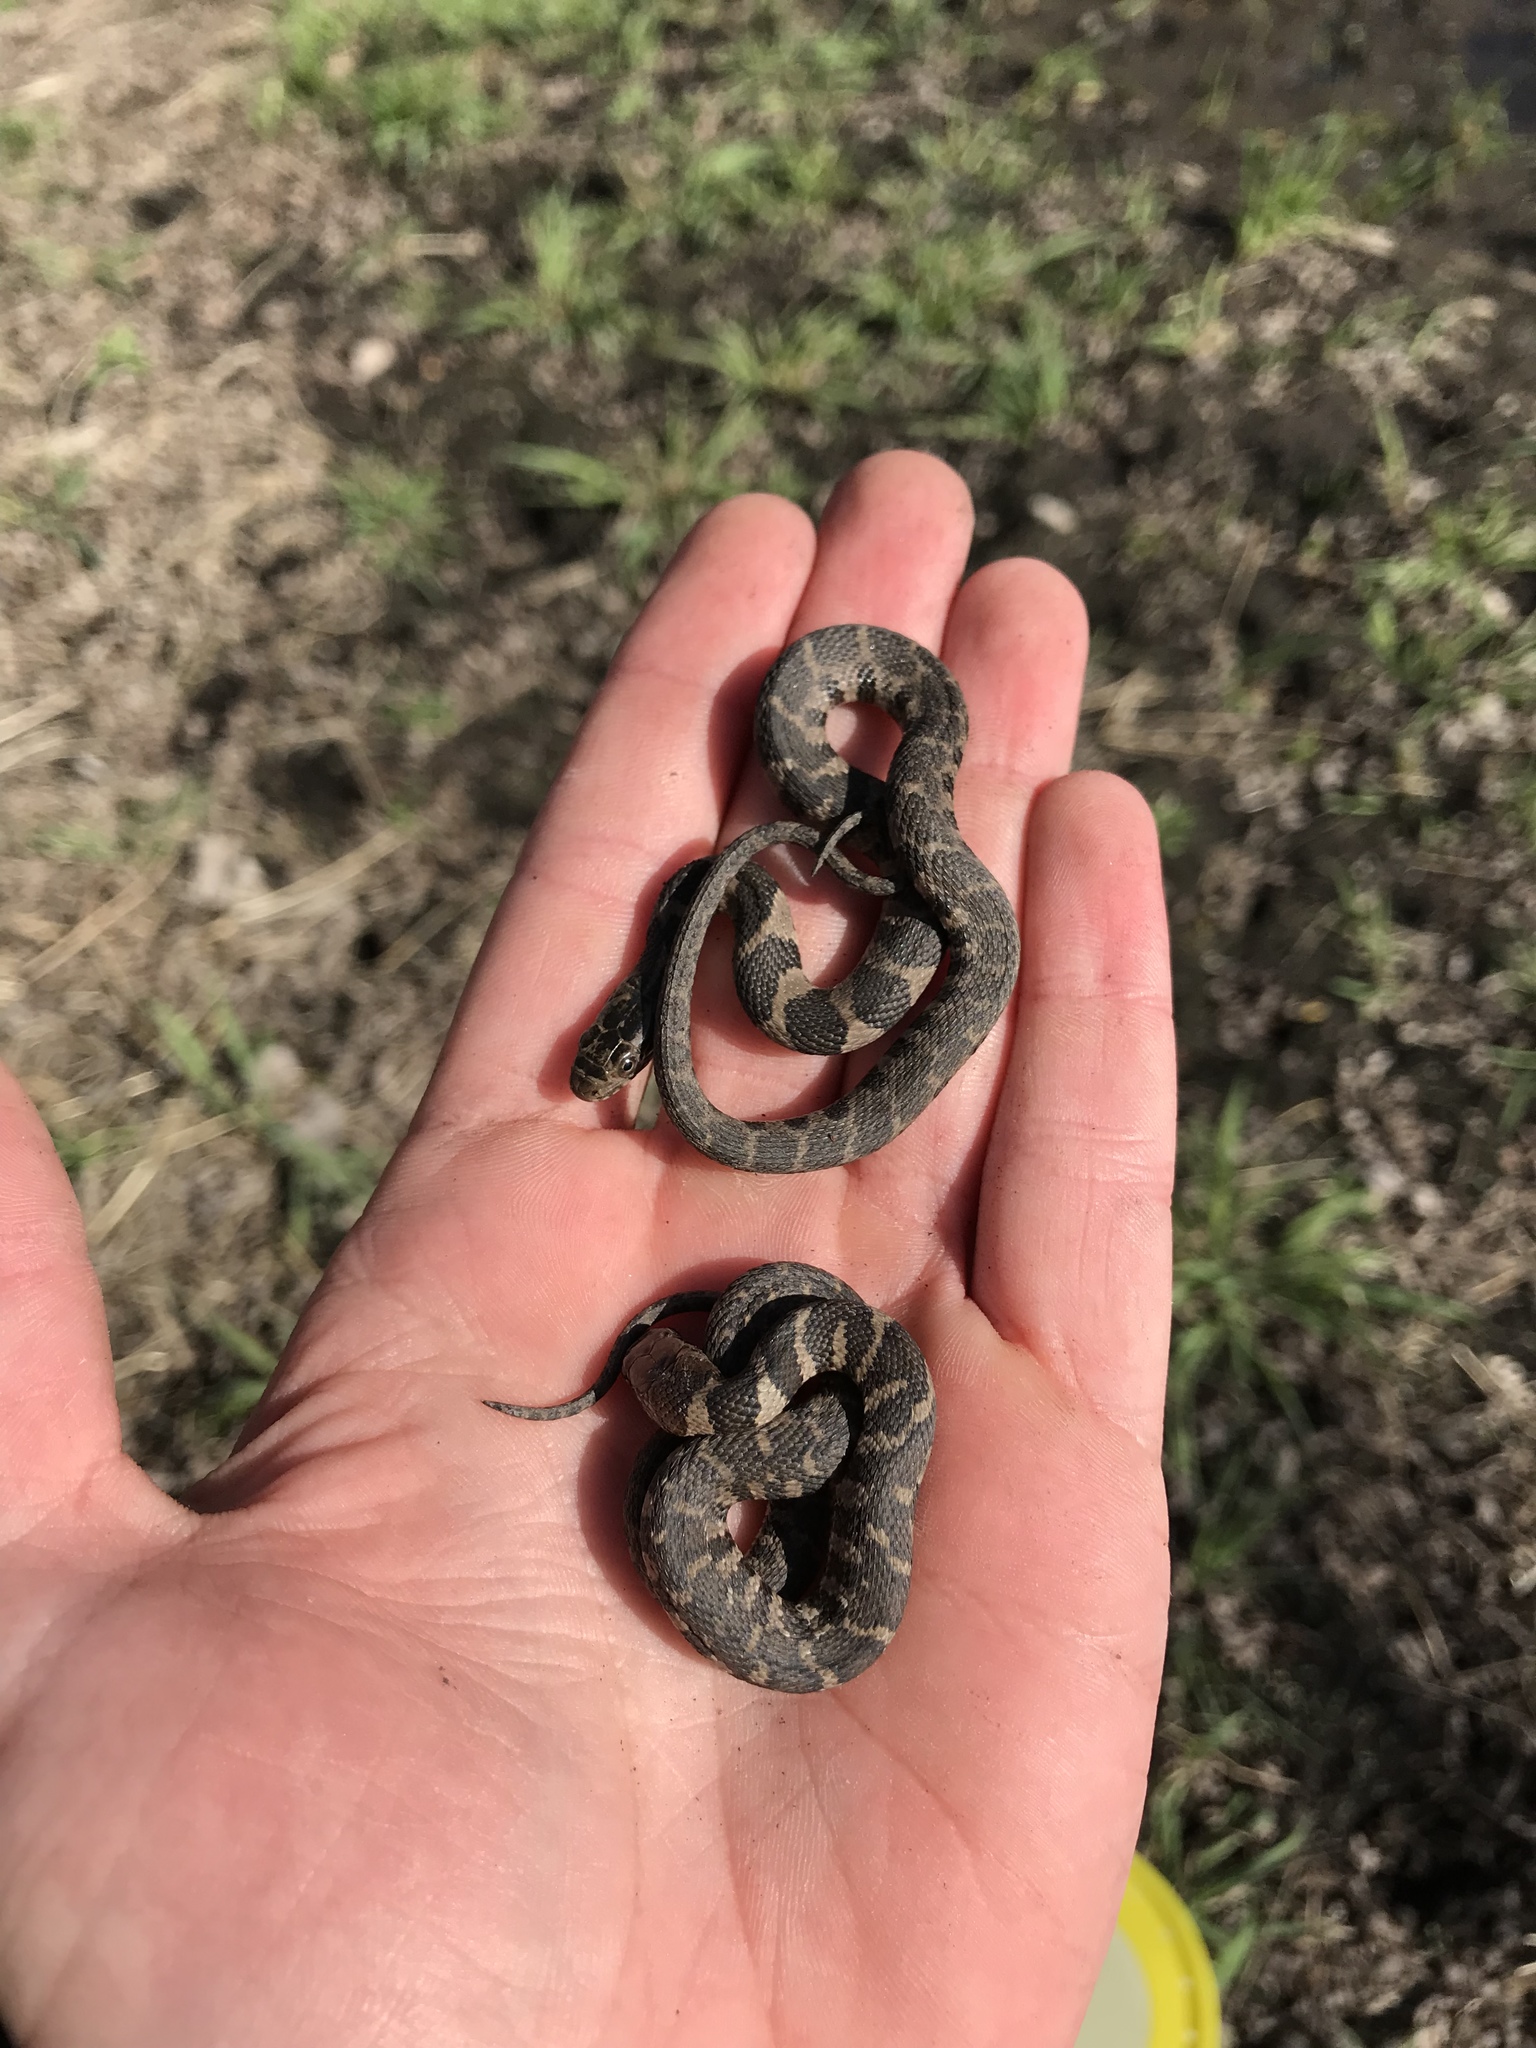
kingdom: Animalia
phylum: Chordata
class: Squamata
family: Colubridae
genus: Nerodia
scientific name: Nerodia sipedon
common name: Northern water snake
